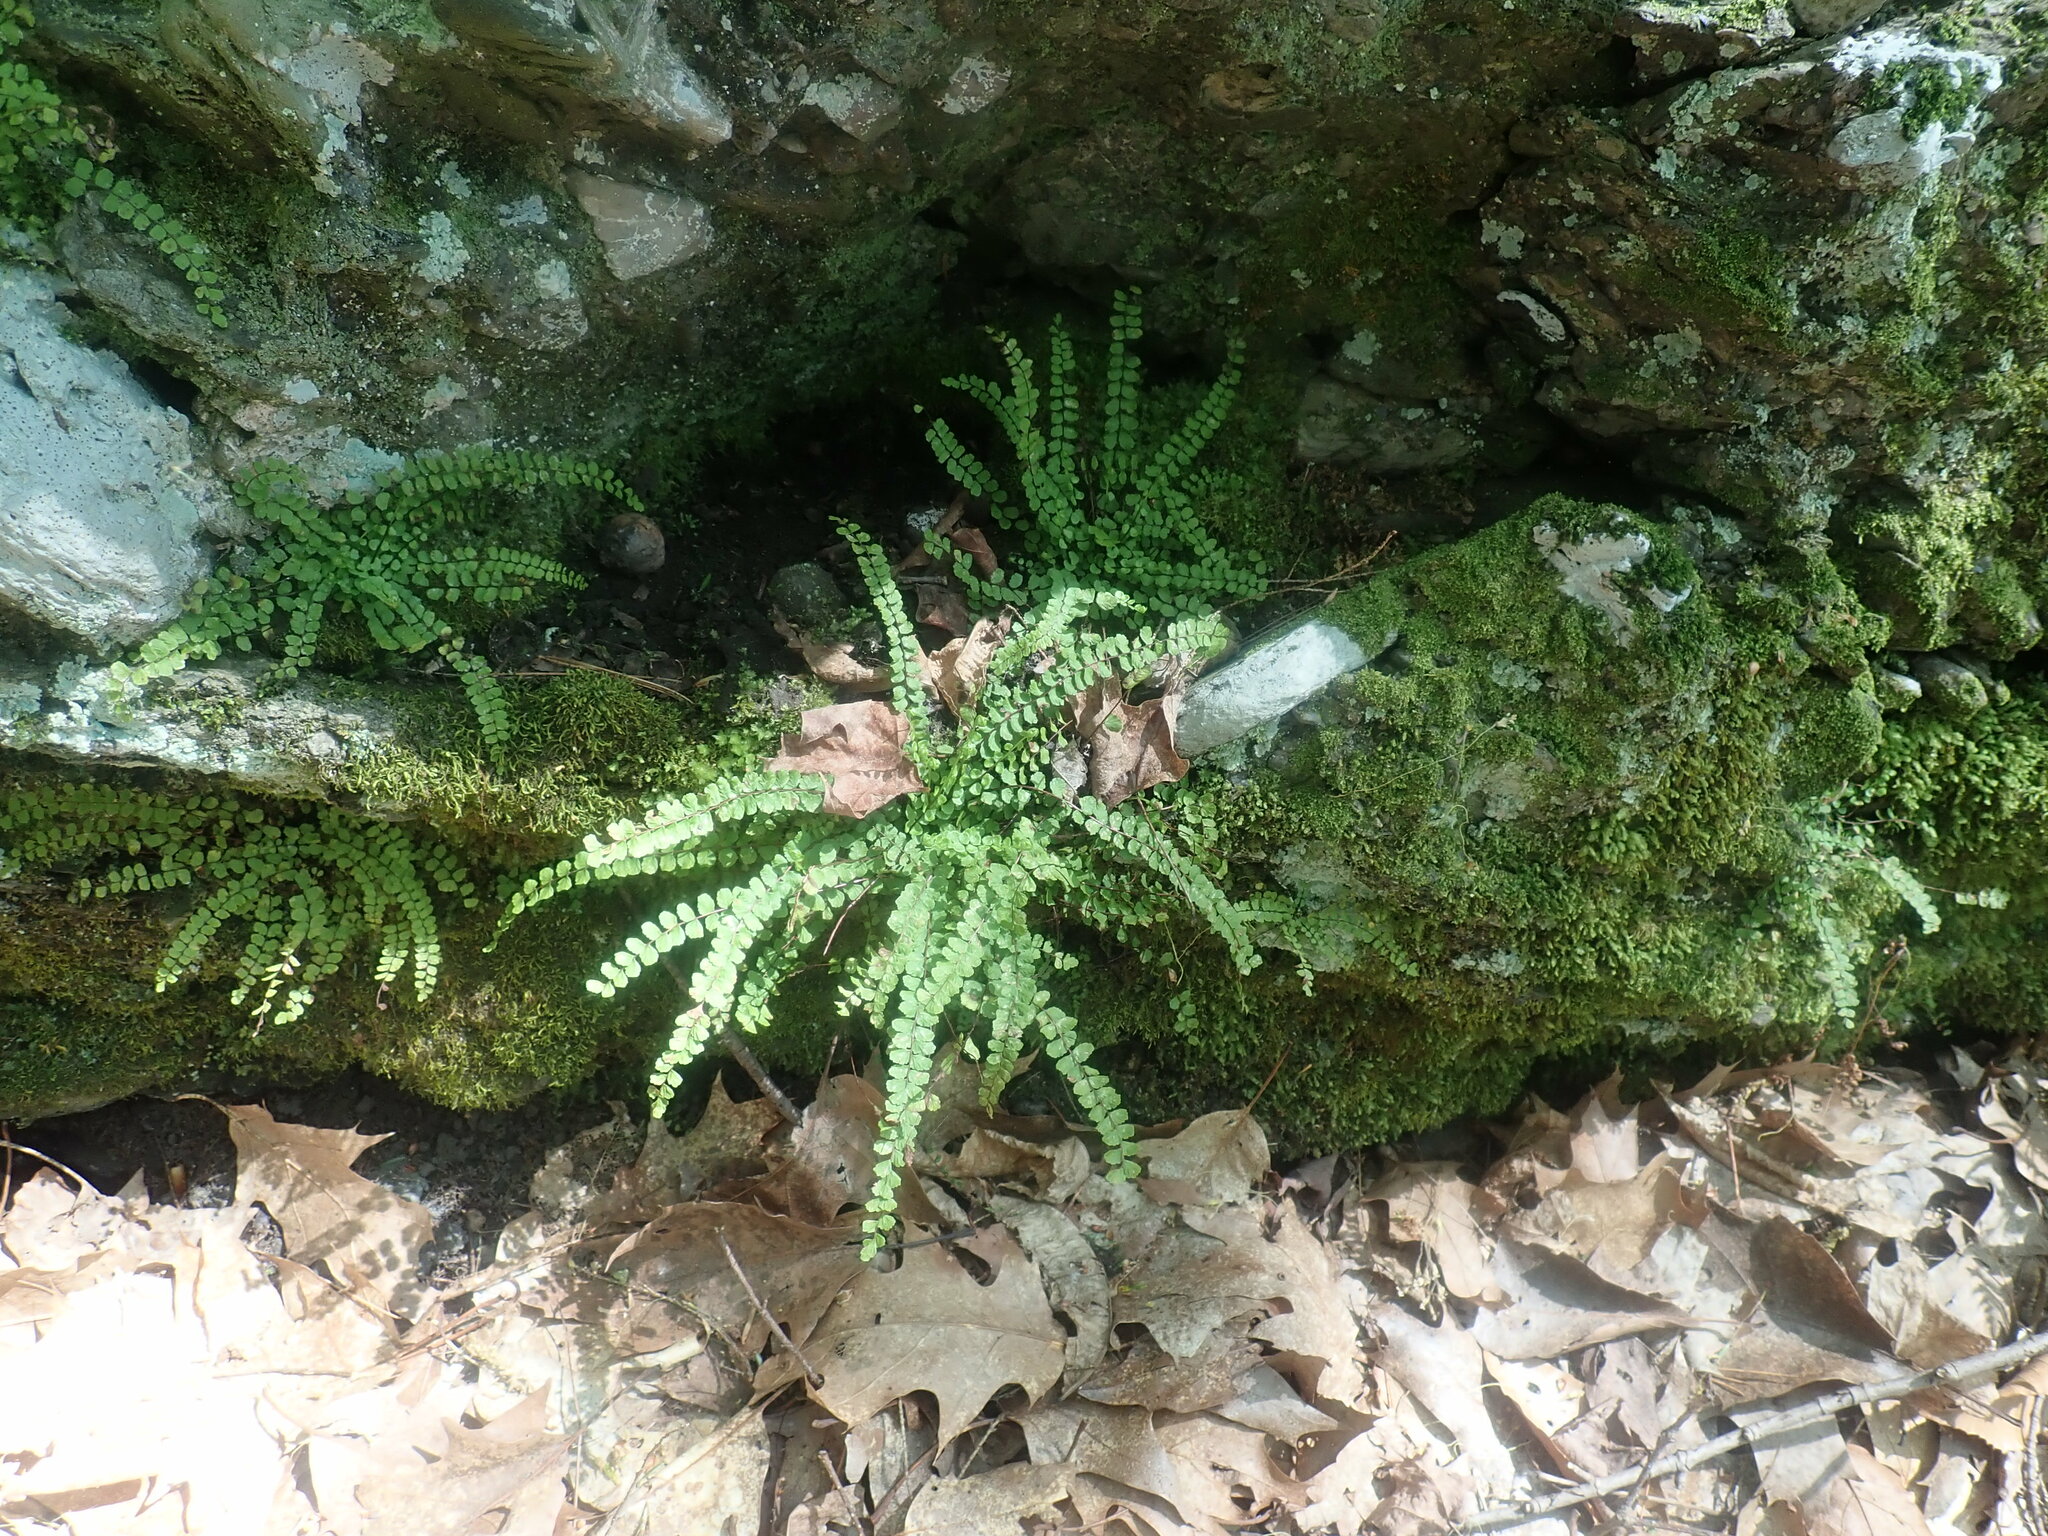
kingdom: Plantae
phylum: Tracheophyta
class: Polypodiopsida
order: Polypodiales
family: Aspleniaceae
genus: Asplenium
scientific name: Asplenium trichomanes
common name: Maidenhair spleenwort
